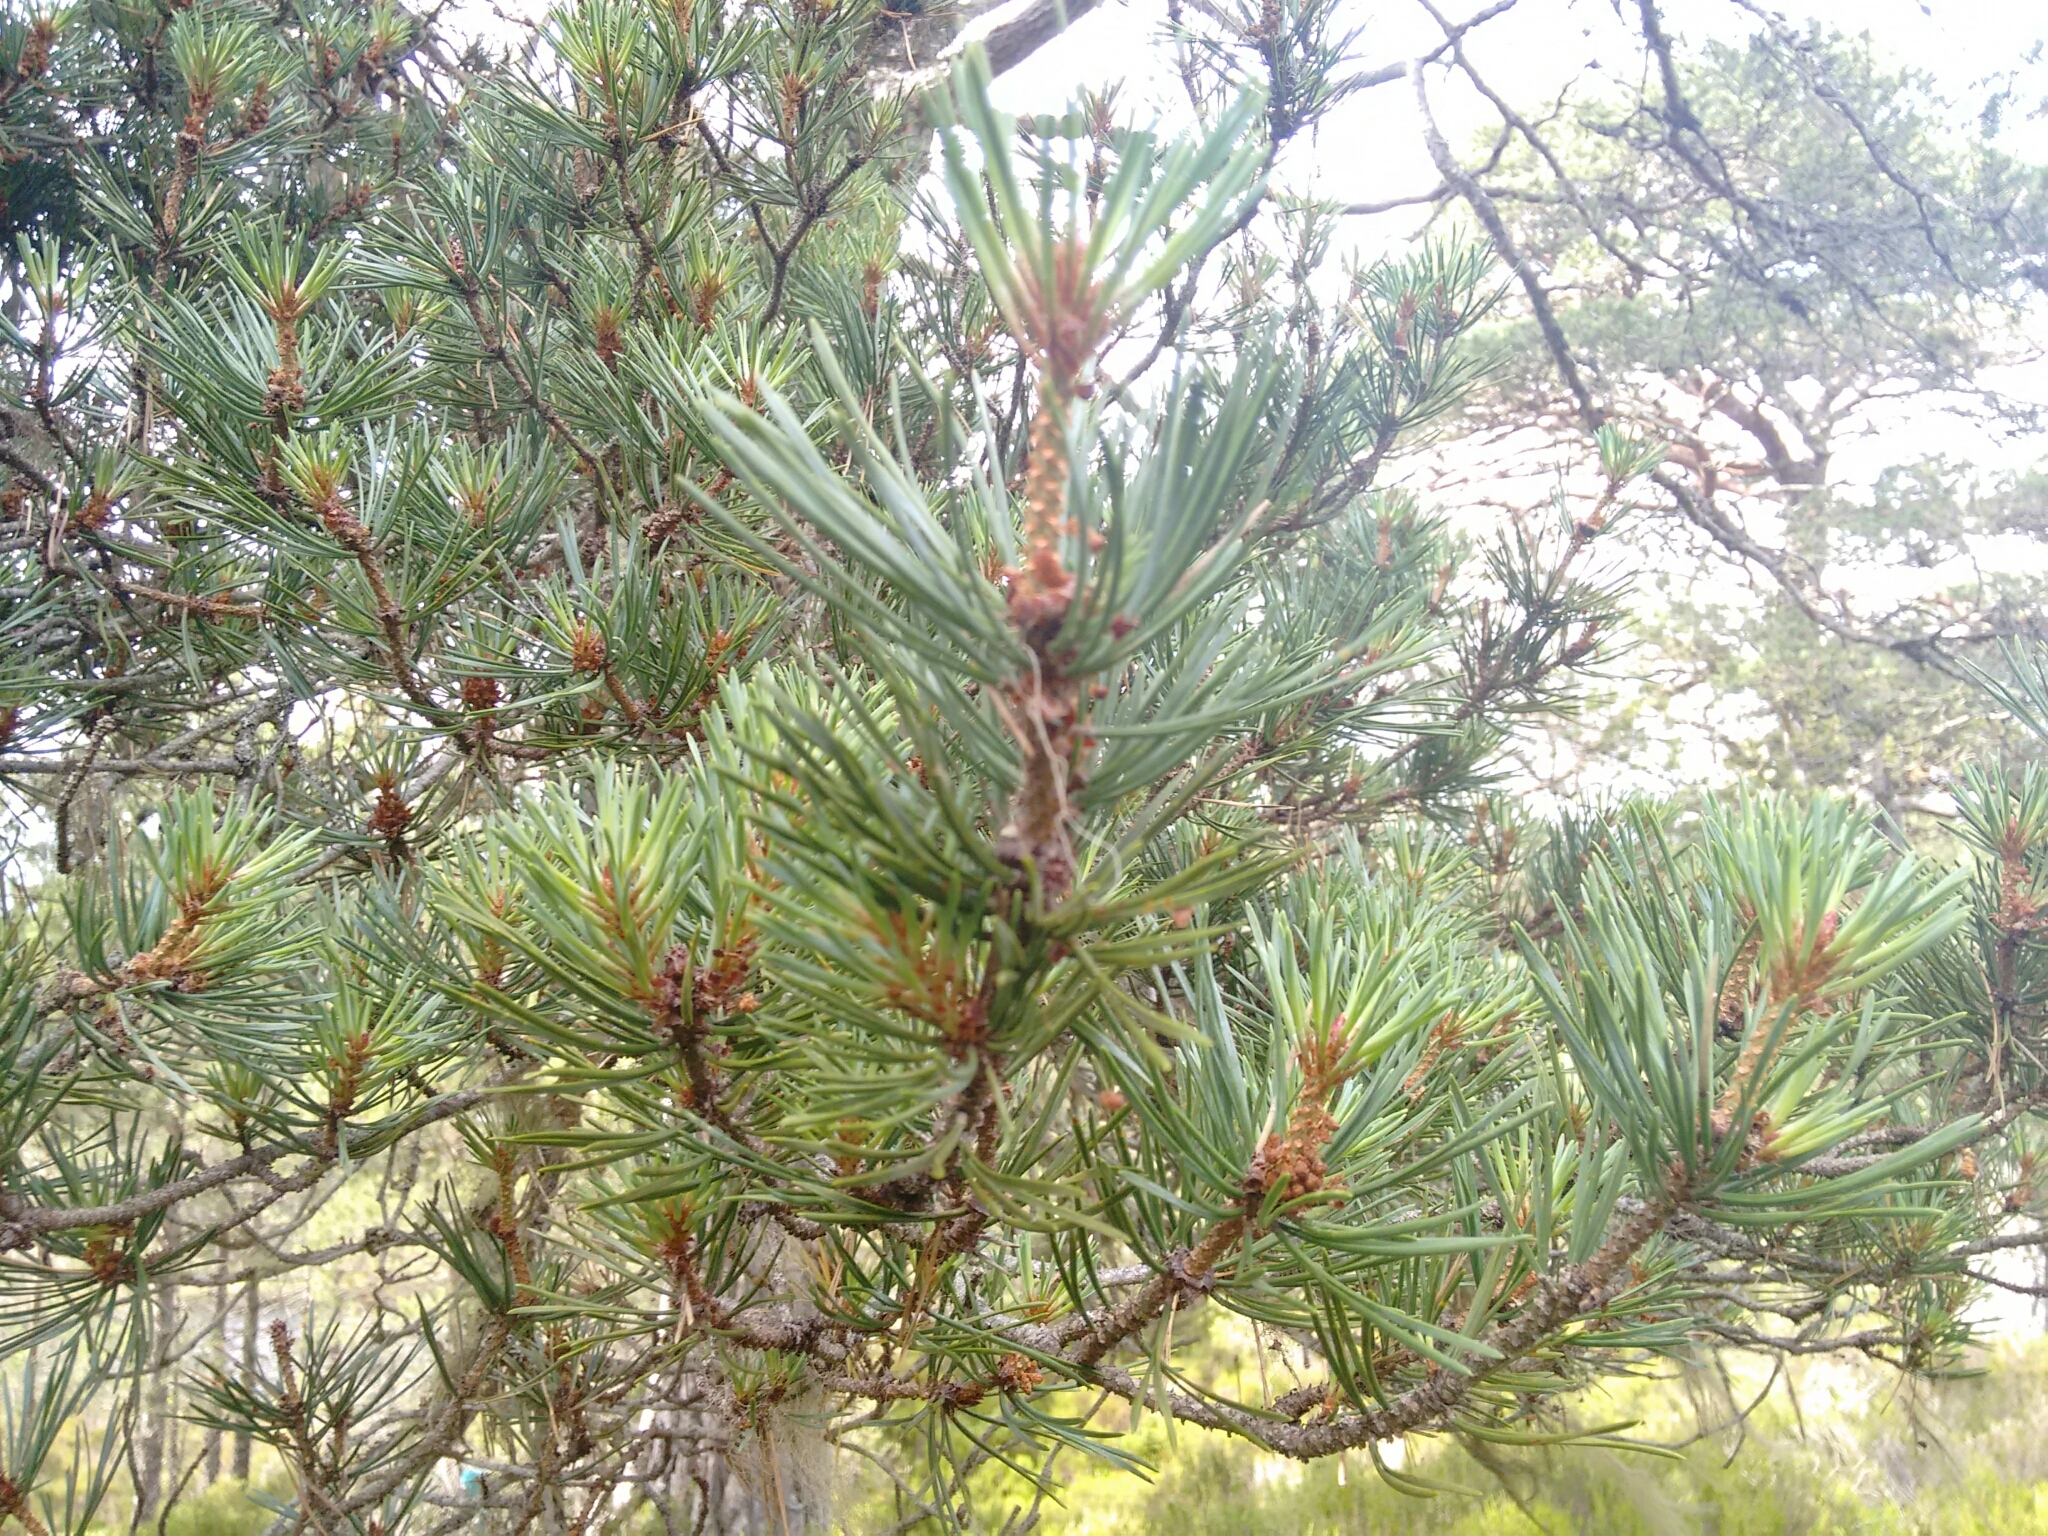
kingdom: Plantae
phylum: Tracheophyta
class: Pinopsida
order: Pinales
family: Pinaceae
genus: Pinus
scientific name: Pinus sylvestris
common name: Scots pine
